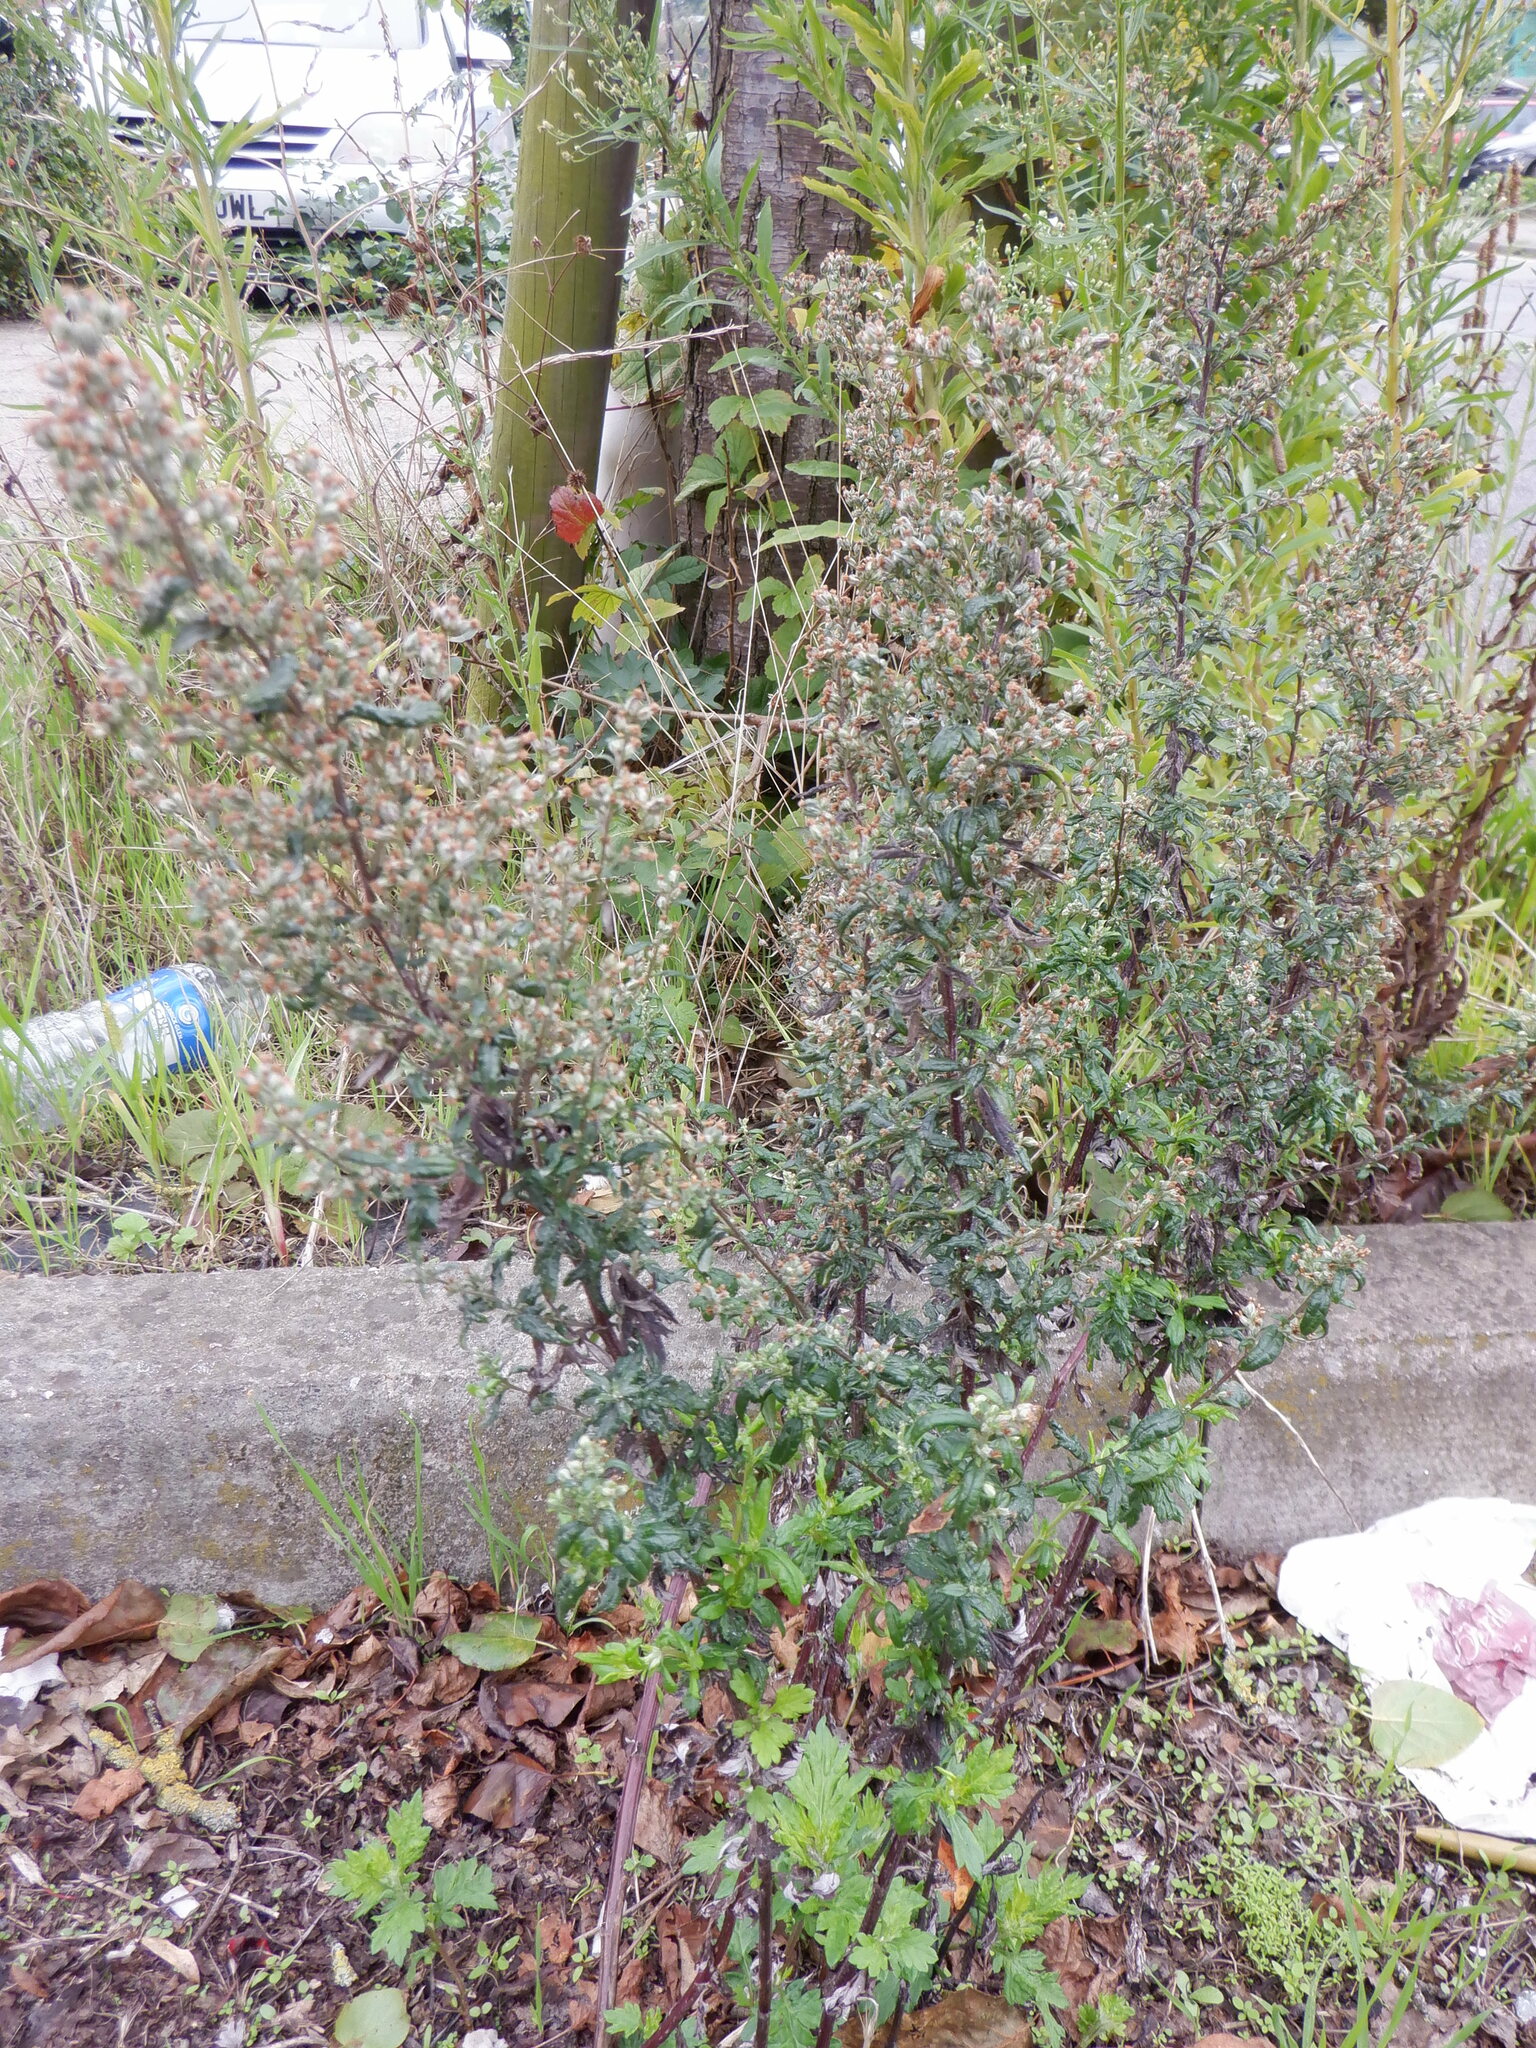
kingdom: Plantae
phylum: Tracheophyta
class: Magnoliopsida
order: Asterales
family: Asteraceae
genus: Artemisia
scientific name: Artemisia vulgaris
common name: Mugwort
